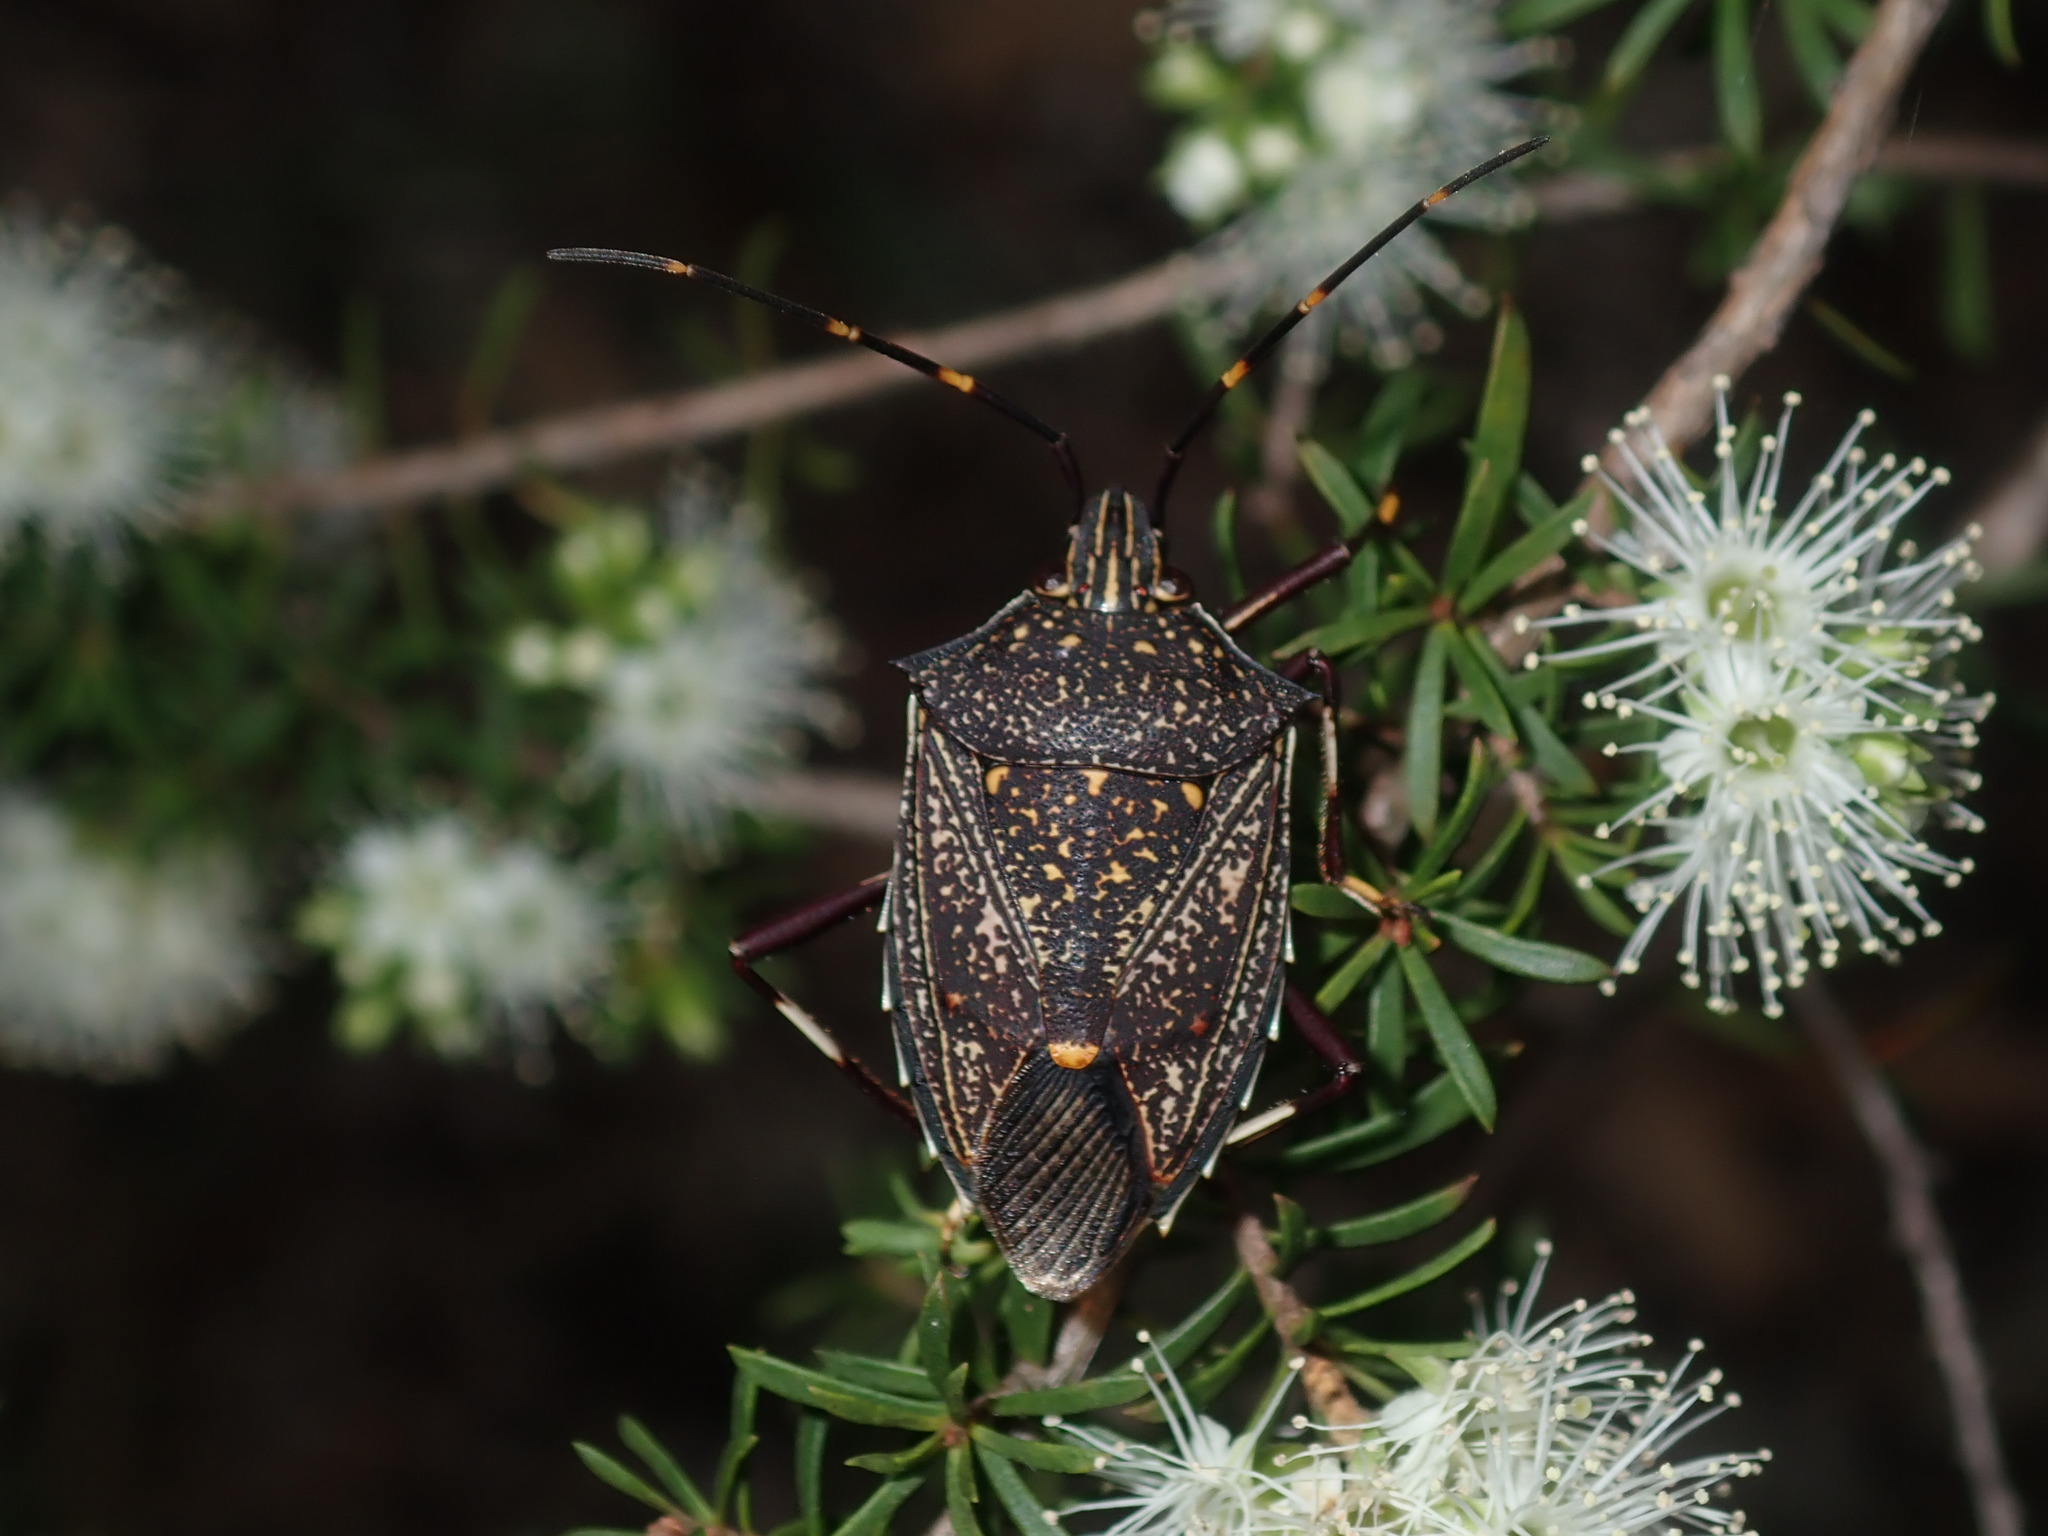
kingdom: Animalia
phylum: Arthropoda
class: Insecta
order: Hemiptera
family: Pentatomidae
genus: Poecilometis
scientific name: Poecilometis
